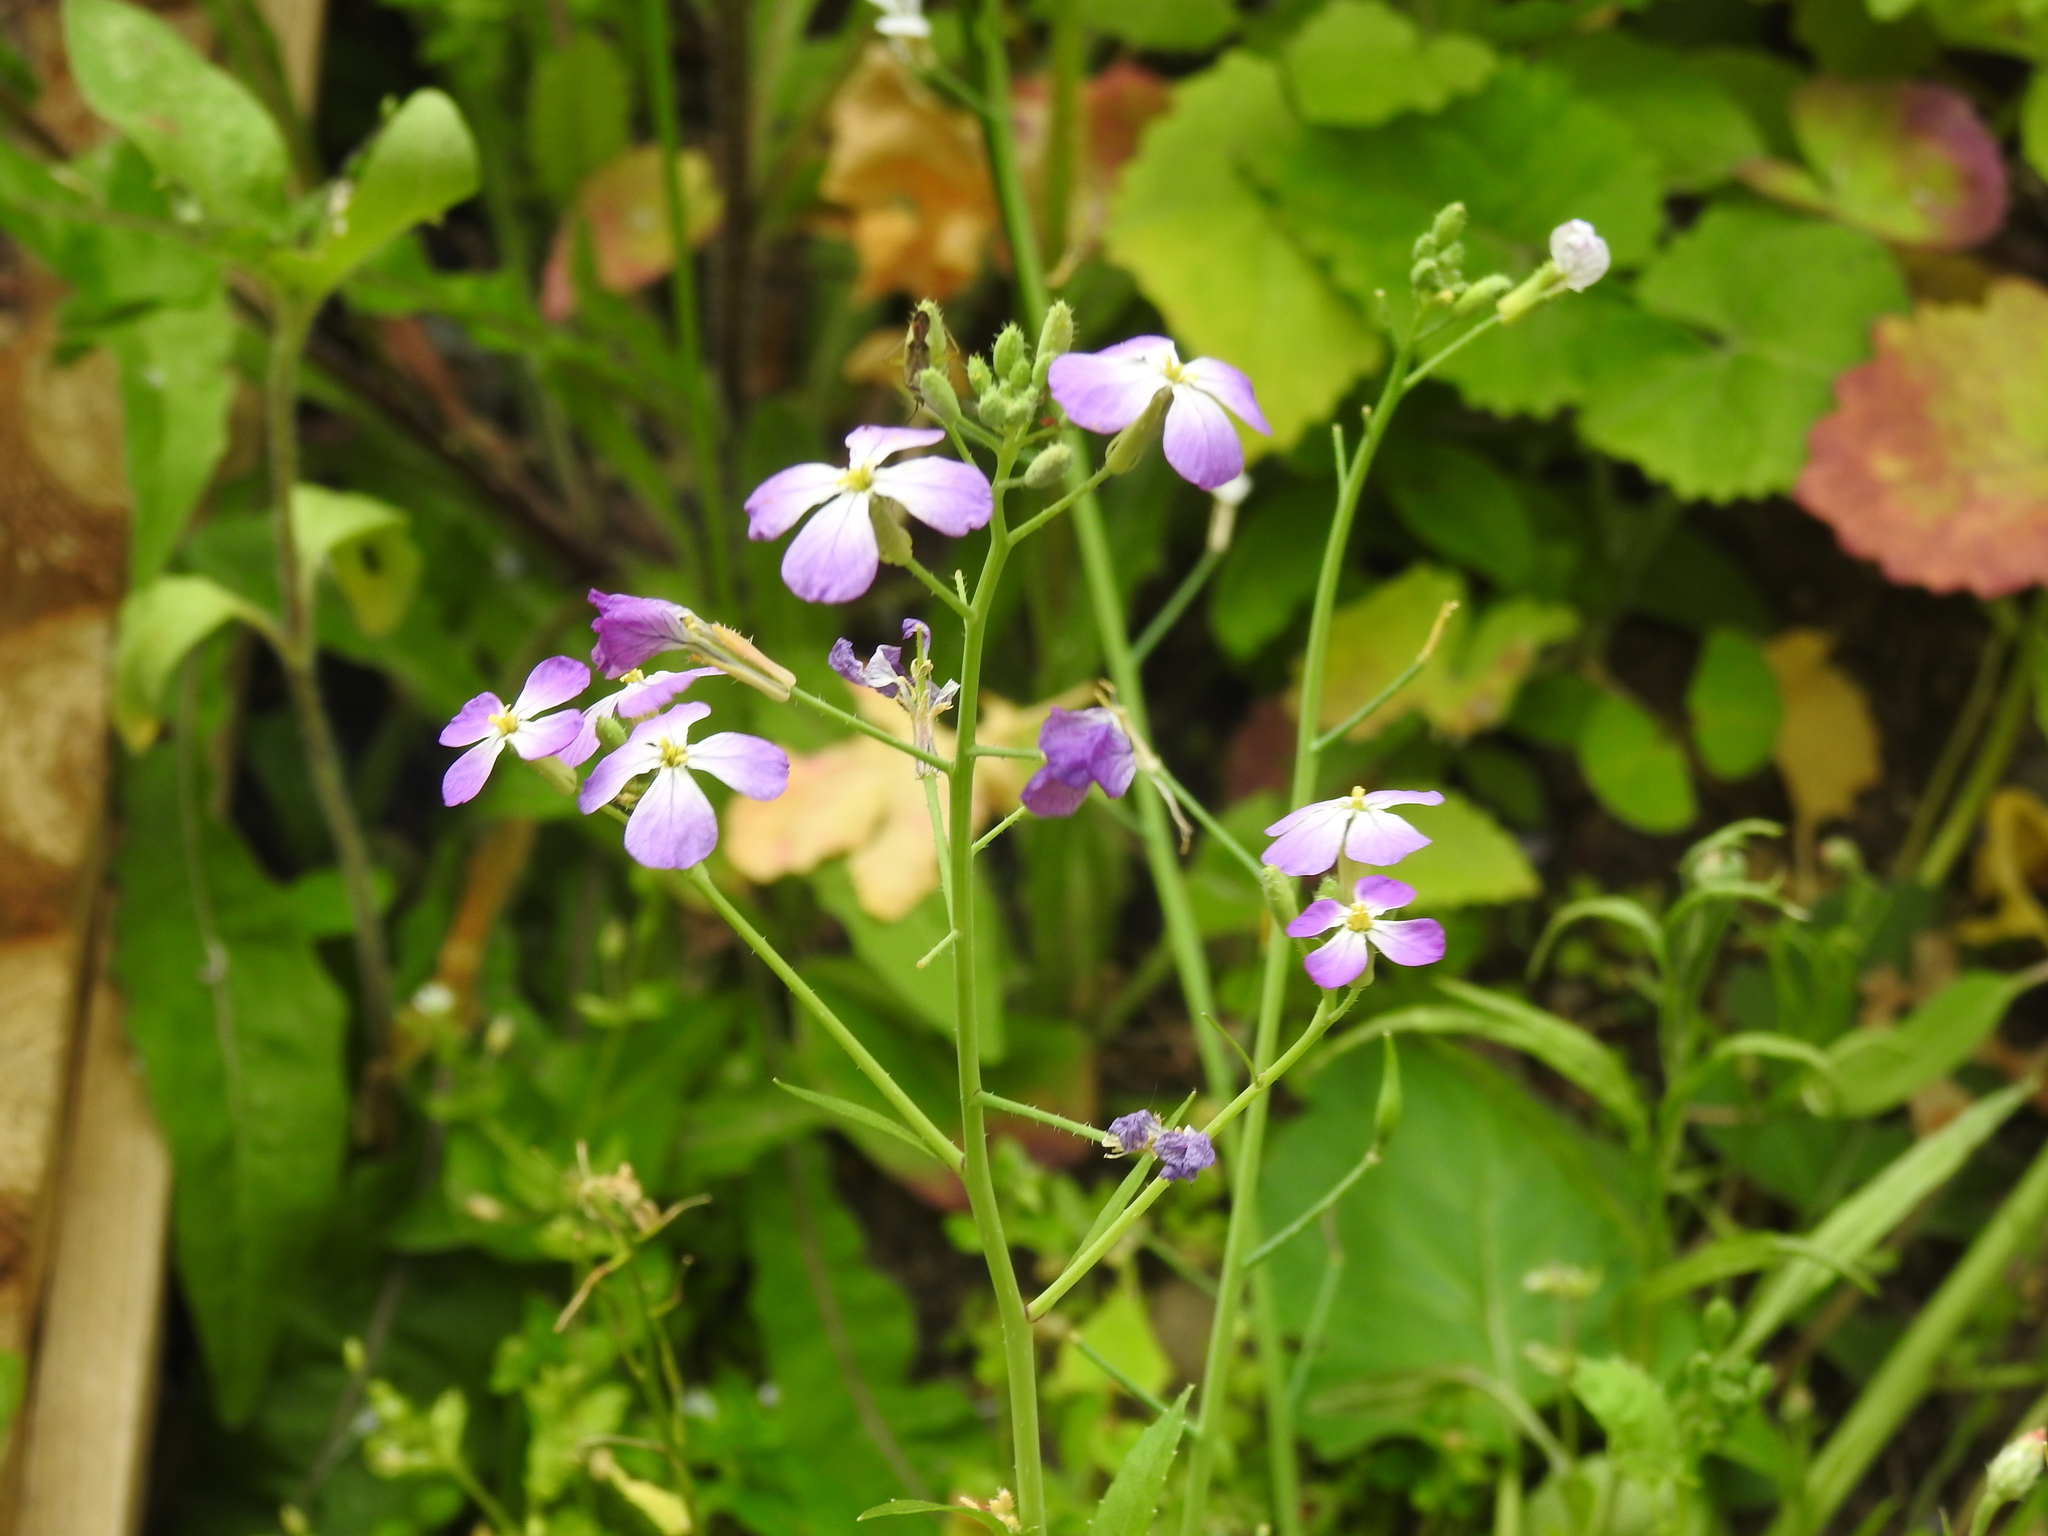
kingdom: Plantae
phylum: Tracheophyta
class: Magnoliopsida
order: Brassicales
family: Brassicaceae
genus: Raphanus
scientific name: Raphanus sativus
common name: Cultivated radish
